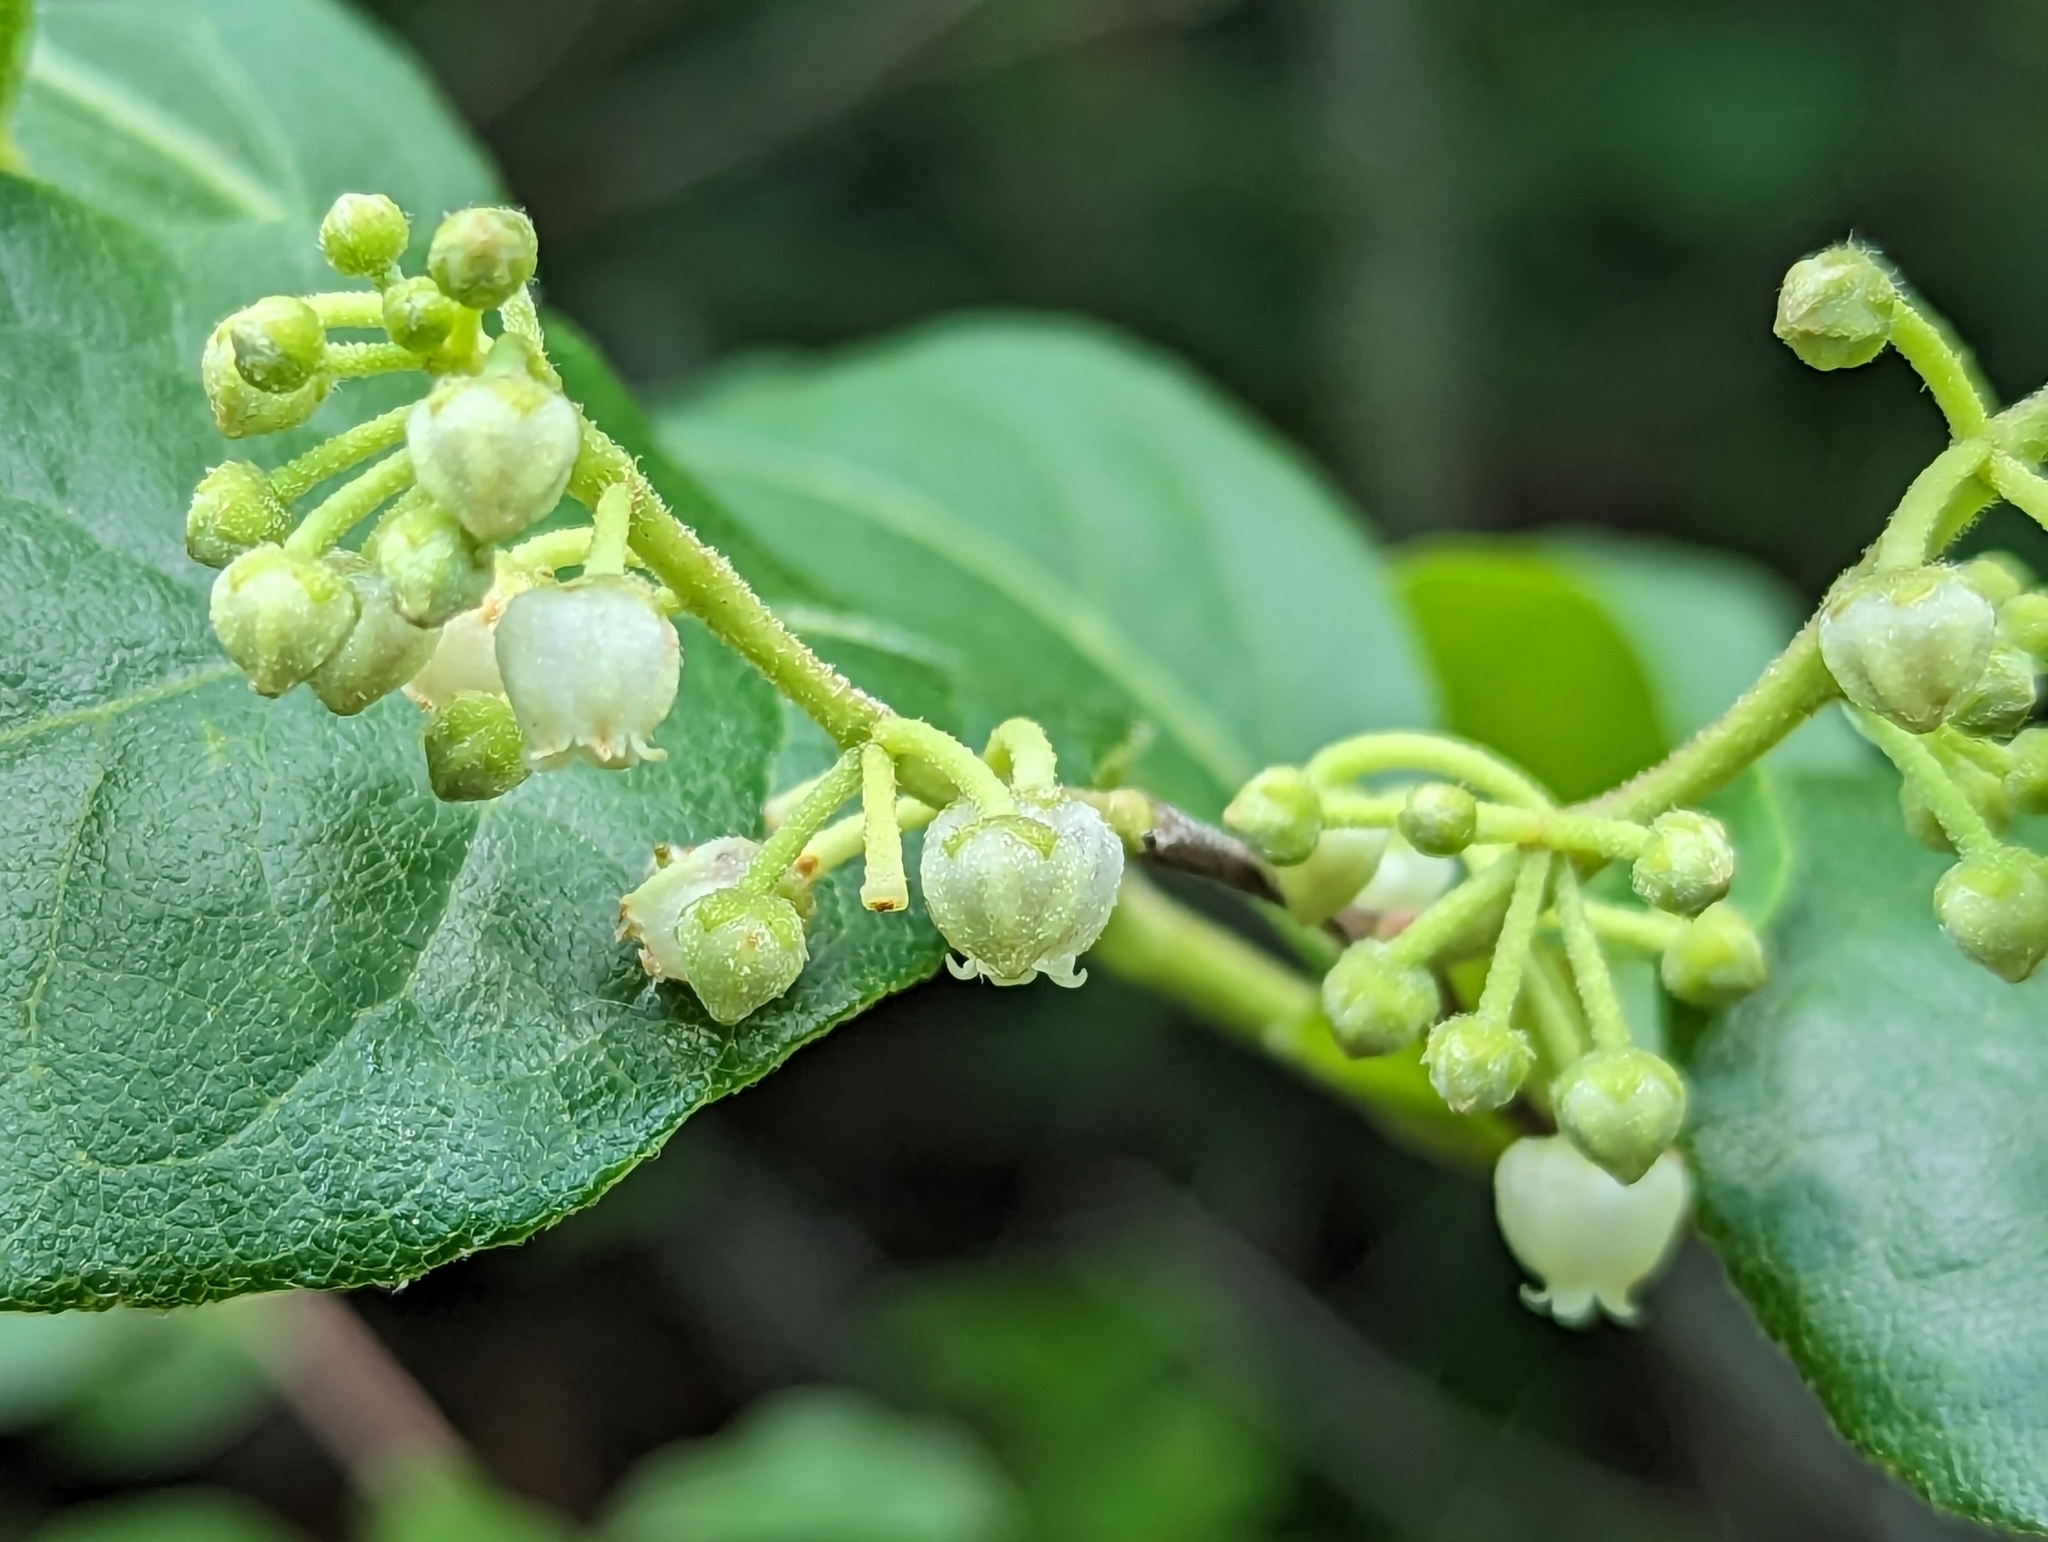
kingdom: Plantae
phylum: Tracheophyta
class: Magnoliopsida
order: Ericales
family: Ericaceae
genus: Lyonia
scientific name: Lyonia ligustrina
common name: Maleberry
